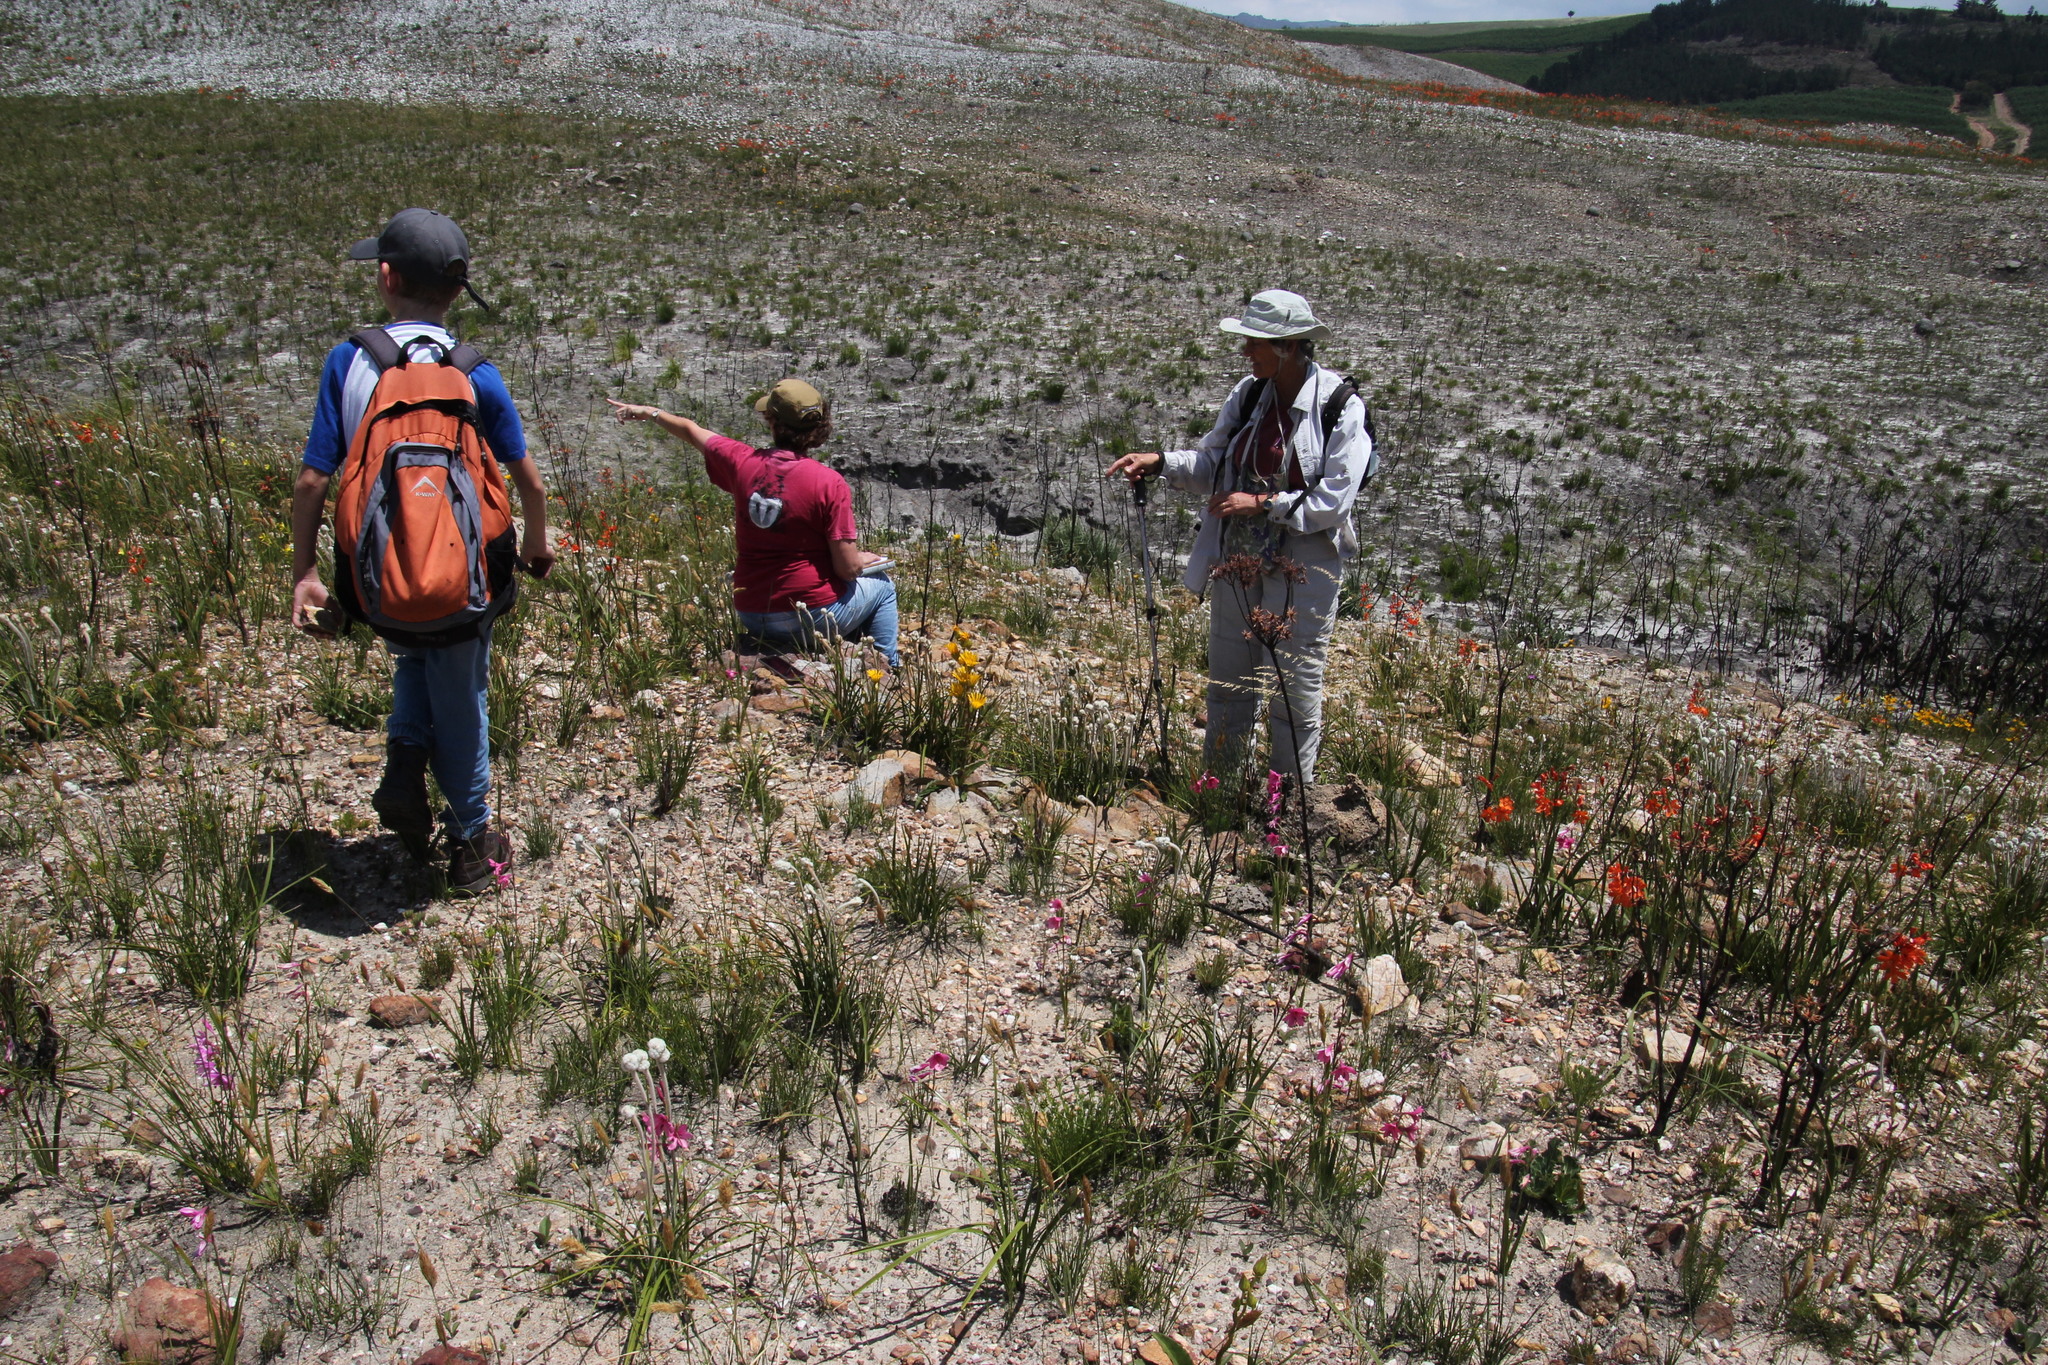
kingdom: Plantae
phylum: Tracheophyta
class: Liliopsida
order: Asparagales
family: Iridaceae
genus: Pillansia
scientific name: Pillansia templemannii
